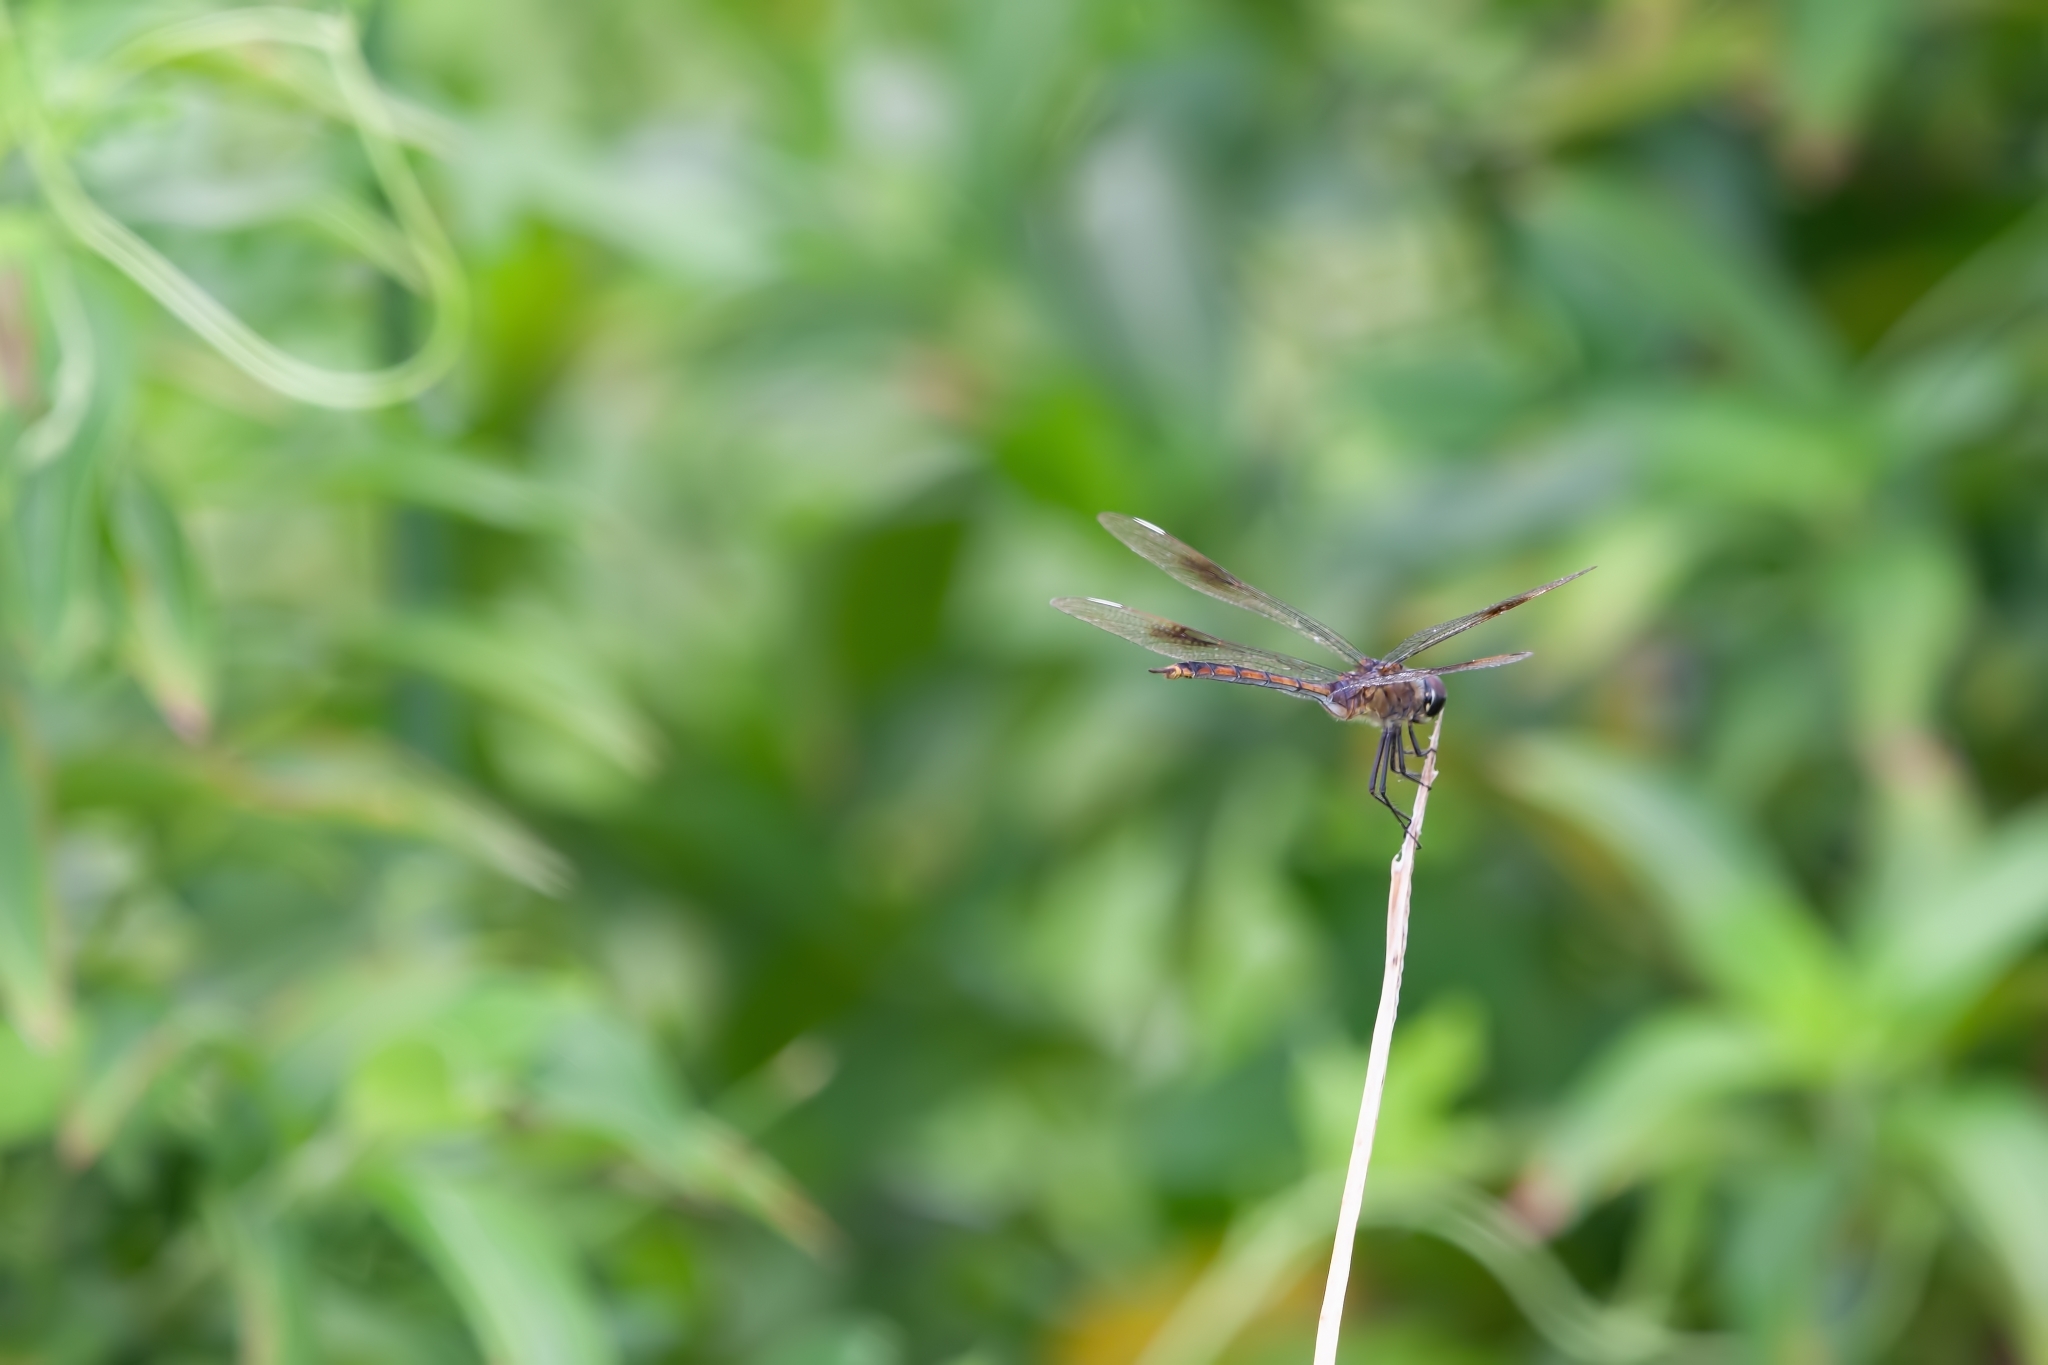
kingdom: Animalia
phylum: Arthropoda
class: Insecta
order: Odonata
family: Libellulidae
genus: Brachymesia
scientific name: Brachymesia gravida
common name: Four-spotted pennant
